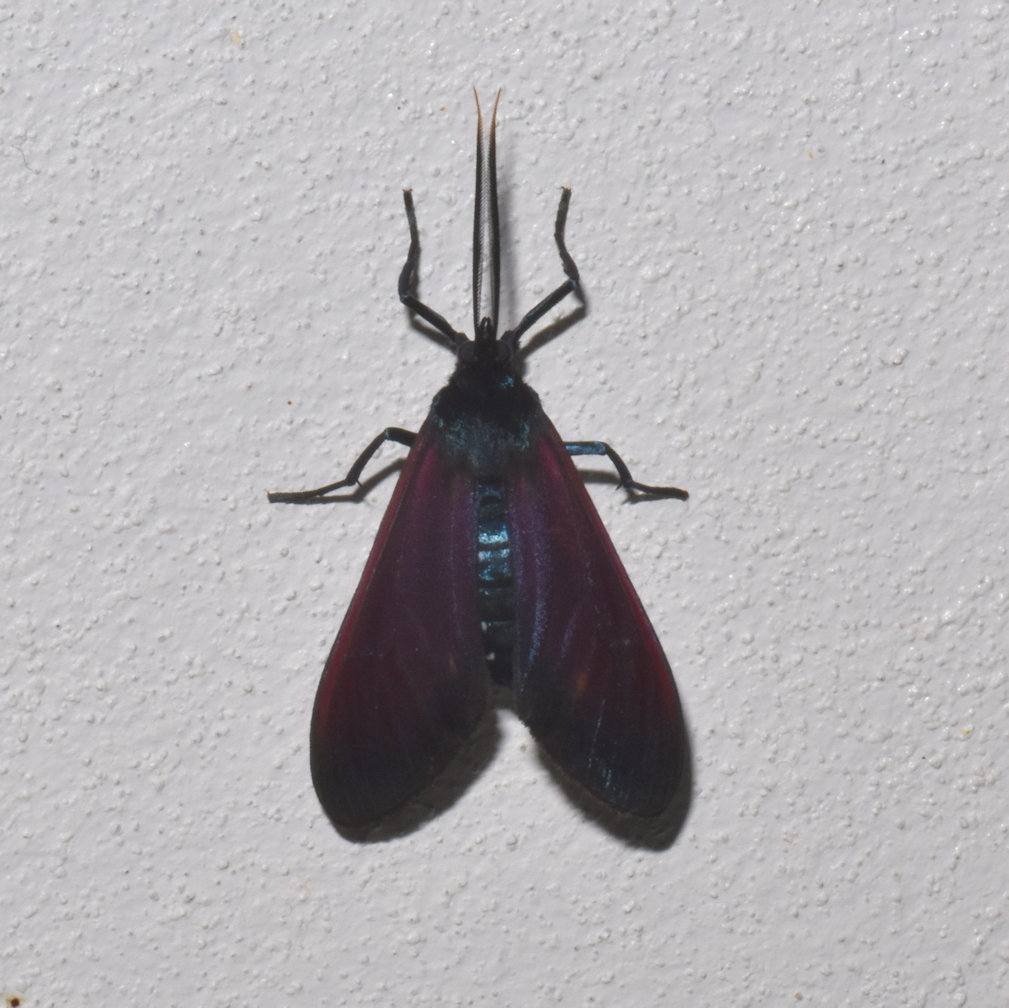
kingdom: Animalia
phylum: Arthropoda
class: Insecta
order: Lepidoptera
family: Erebidae
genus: Empyreuma
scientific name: Empyreuma anassa
